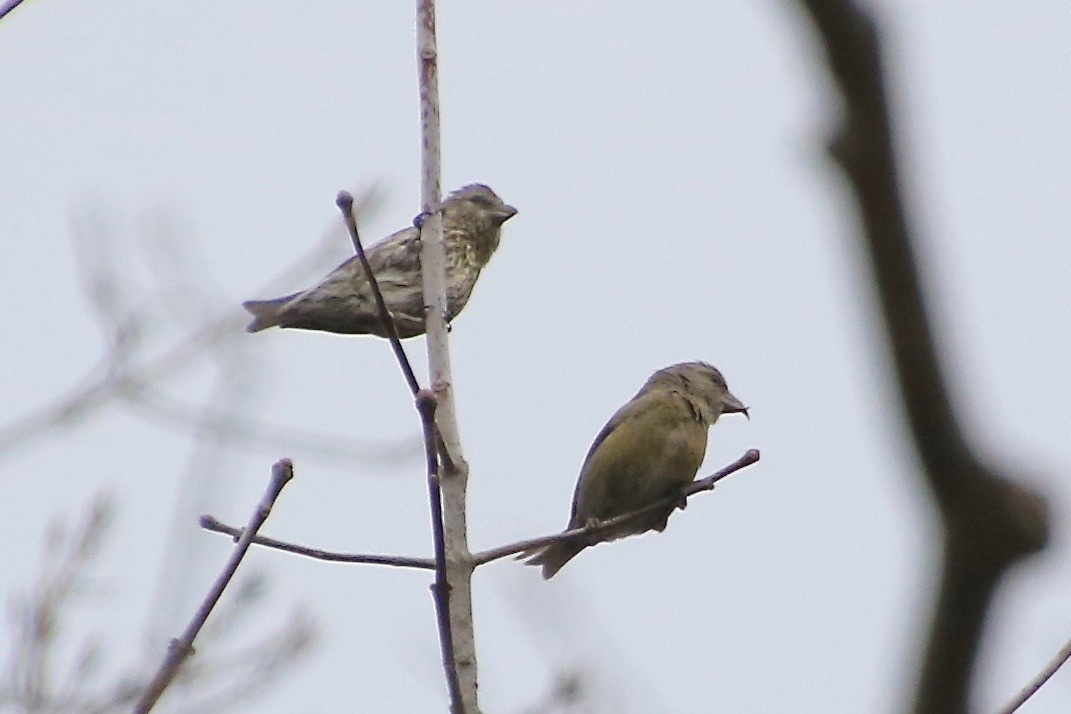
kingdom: Animalia
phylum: Chordata
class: Aves
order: Passeriformes
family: Fringillidae
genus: Loxia
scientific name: Loxia curvirostra
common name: Red crossbill
